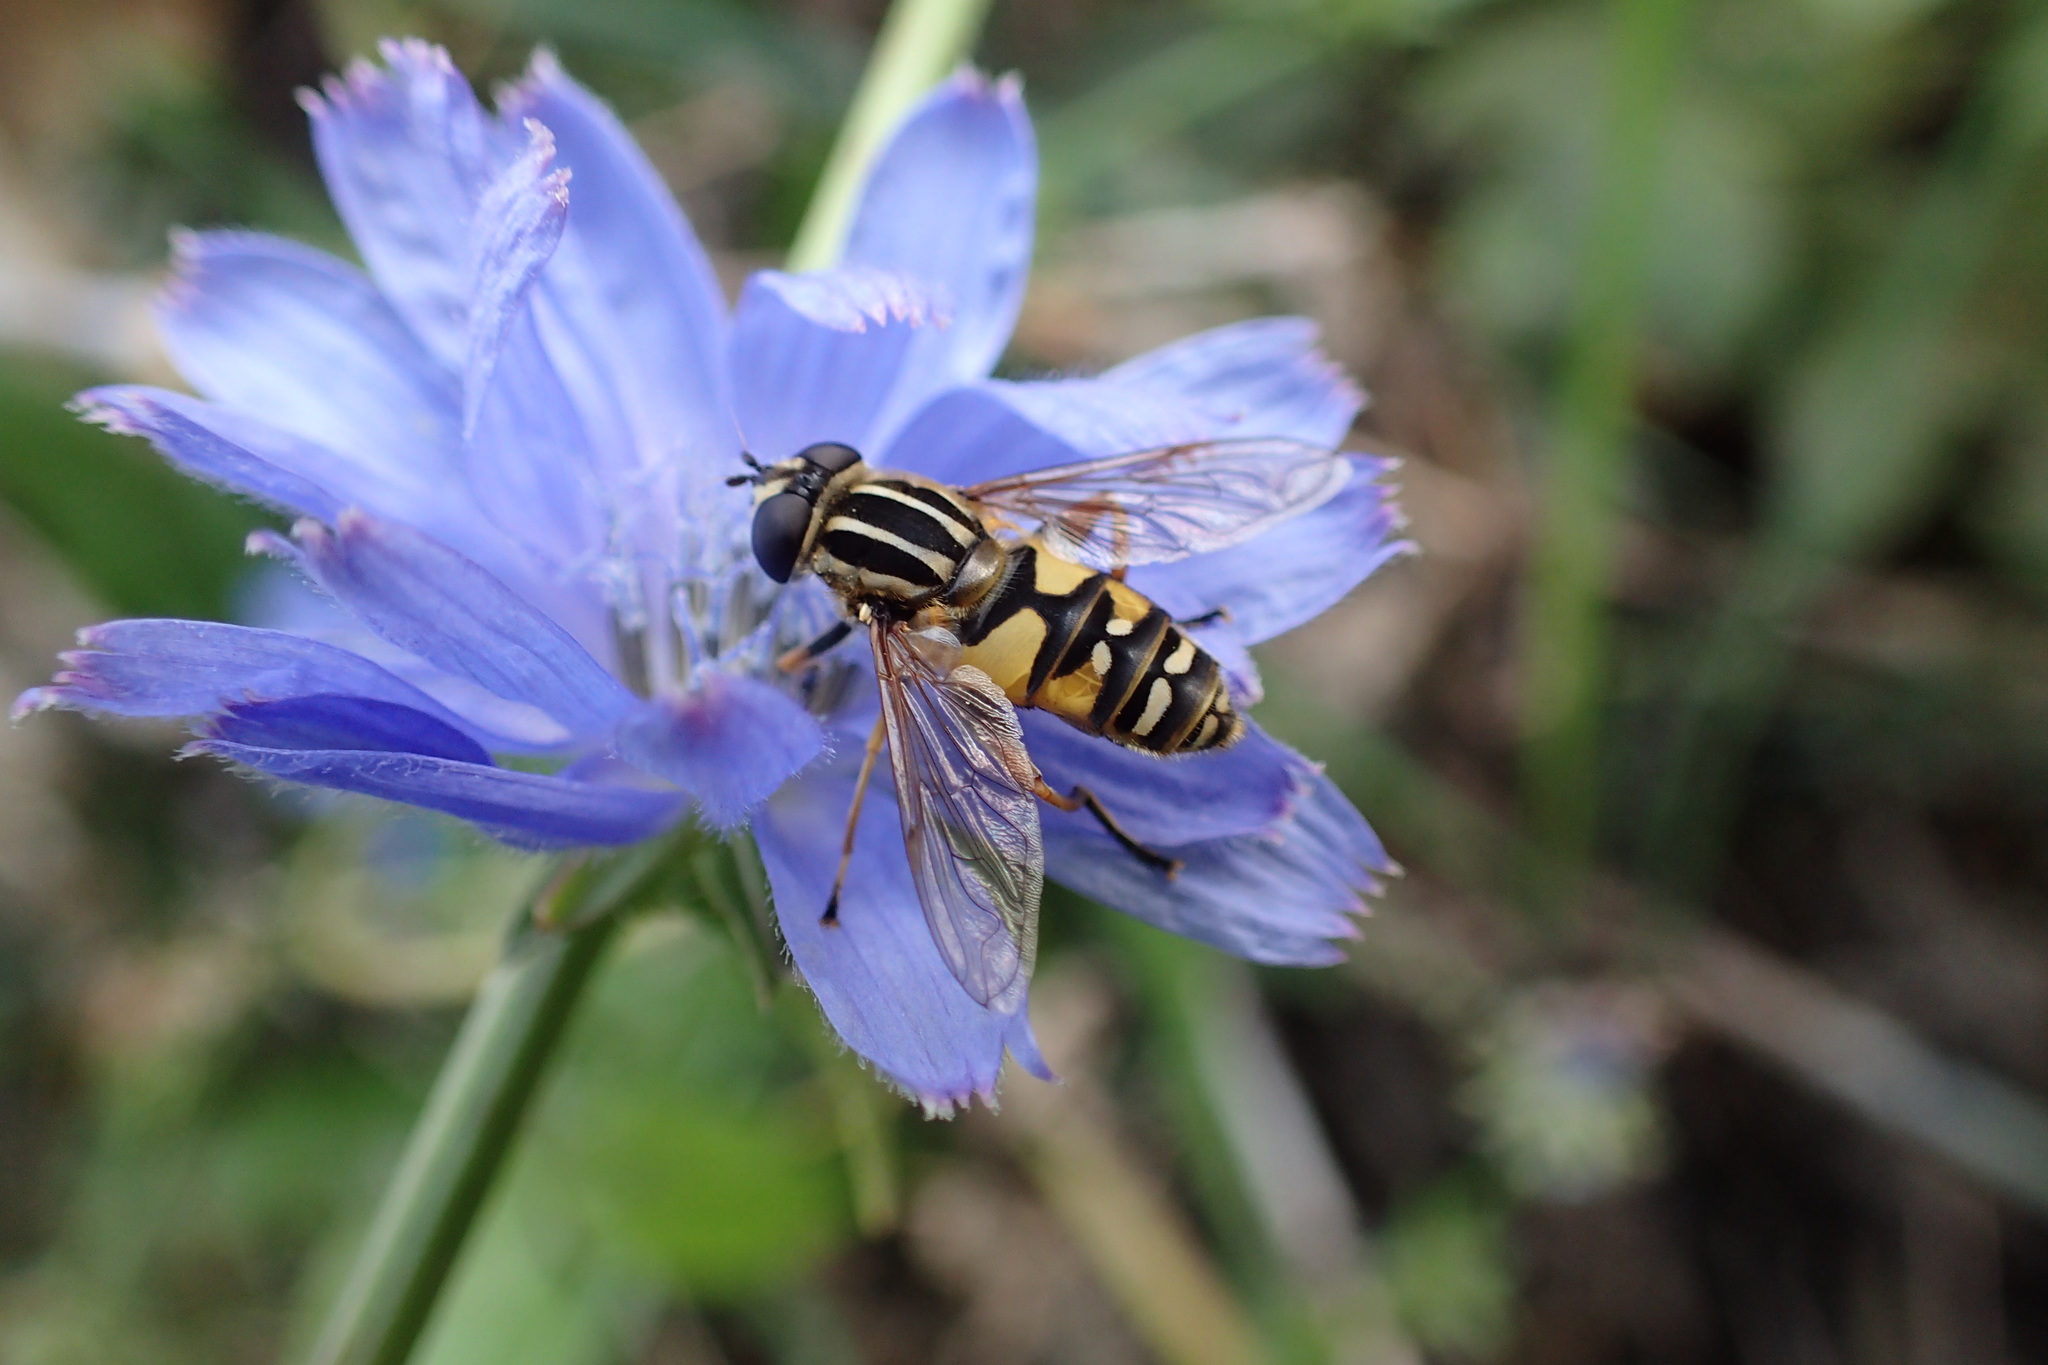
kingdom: Animalia
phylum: Arthropoda
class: Insecta
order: Diptera
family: Syrphidae
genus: Helophilus
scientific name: Helophilus pendulus
